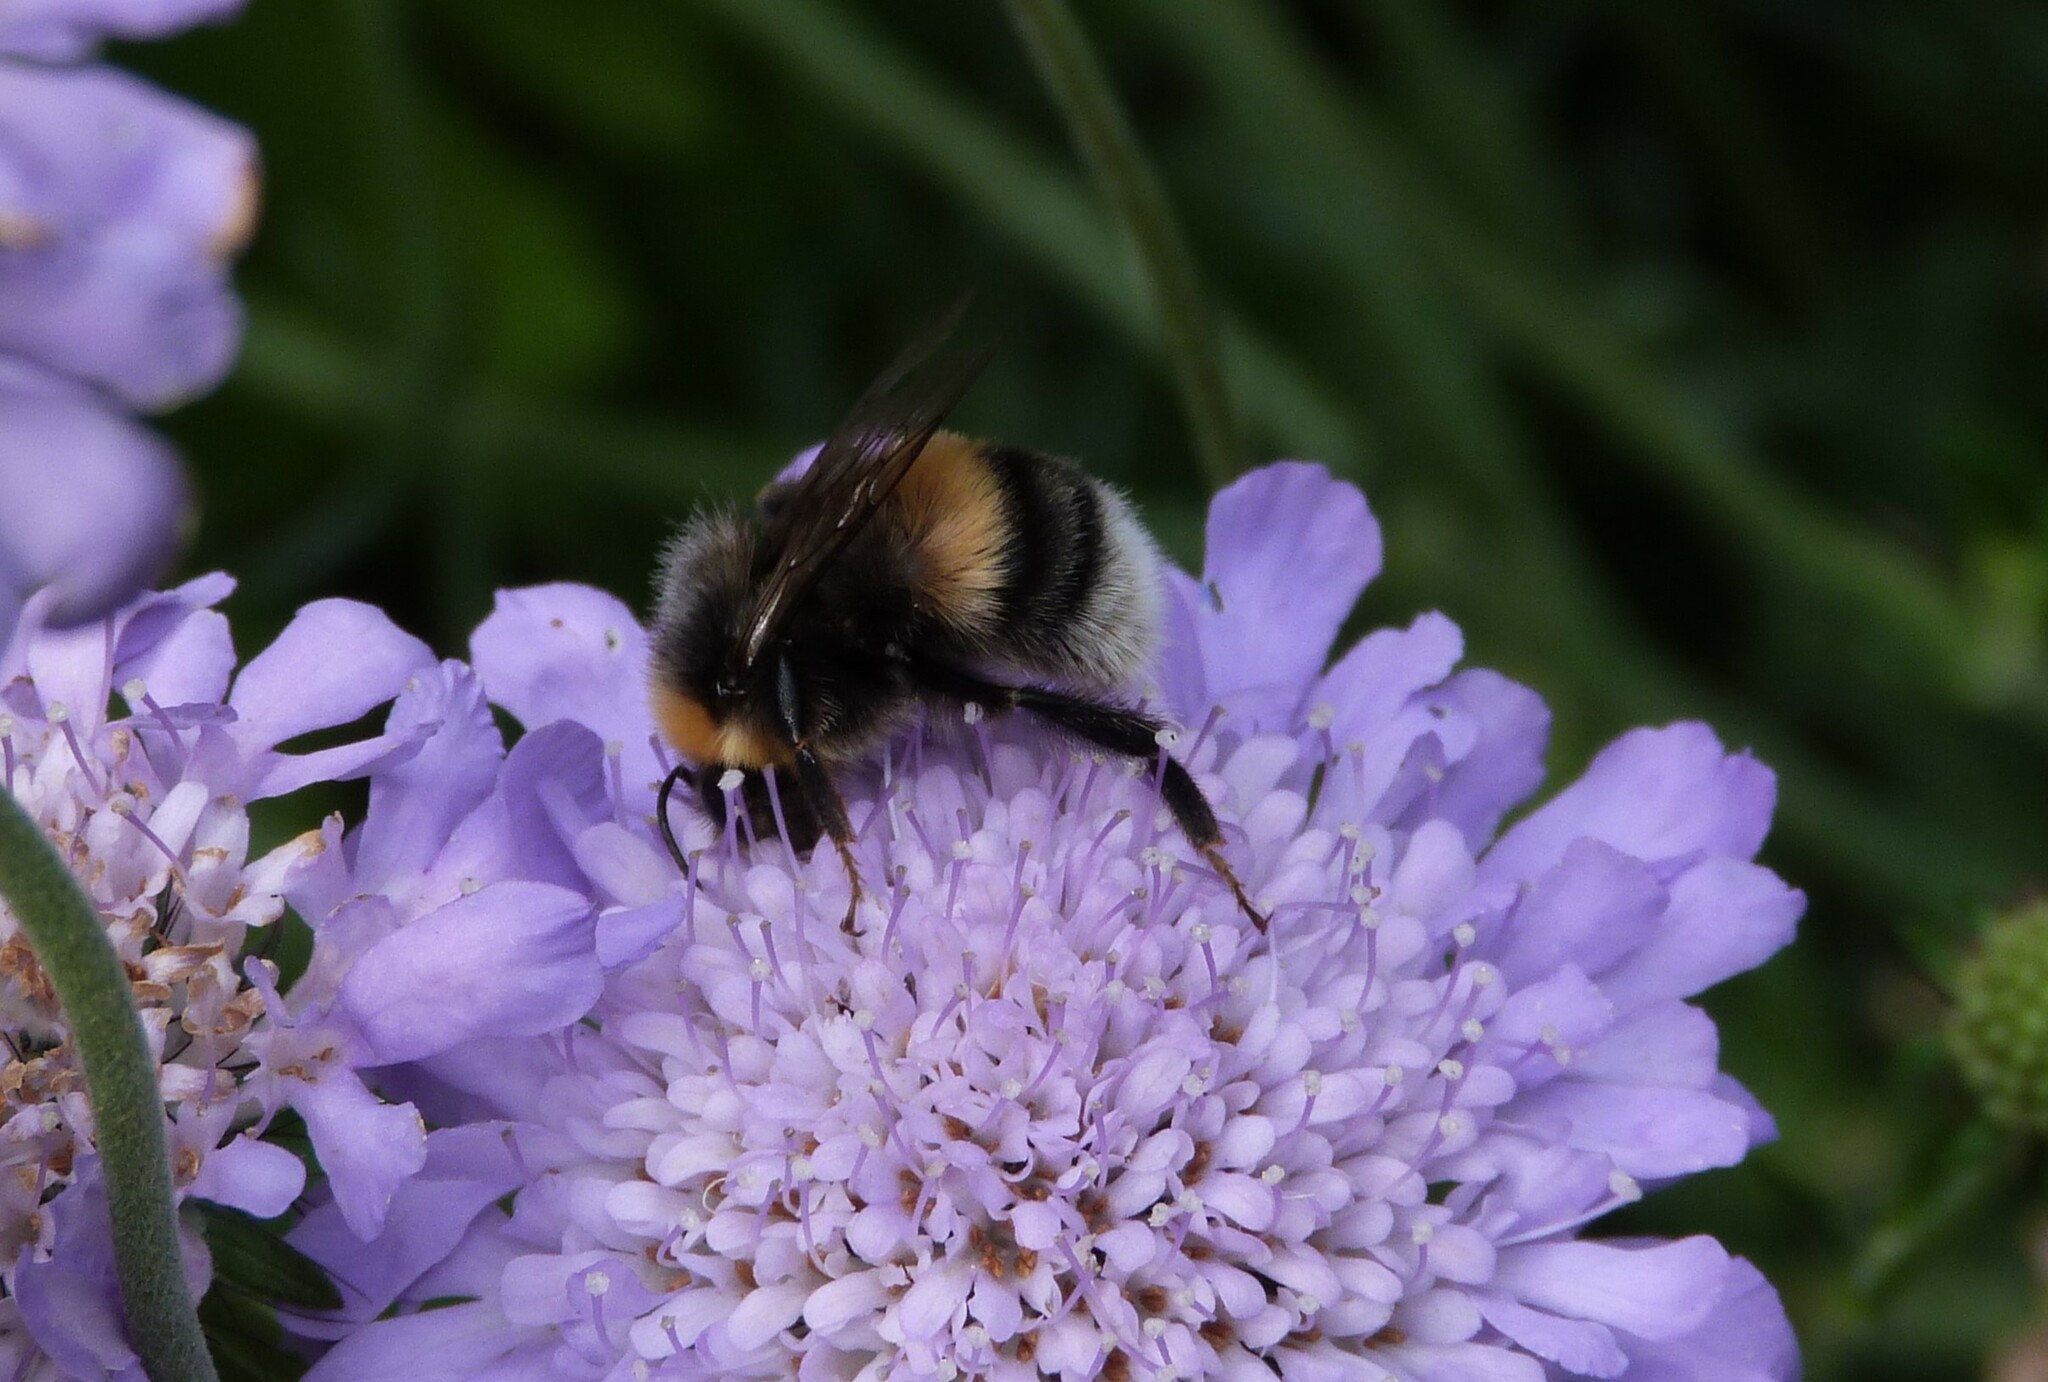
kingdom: Animalia
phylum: Arthropoda
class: Insecta
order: Hymenoptera
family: Apidae
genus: Bombus
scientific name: Bombus lucorum
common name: White-tailed bumblebee
